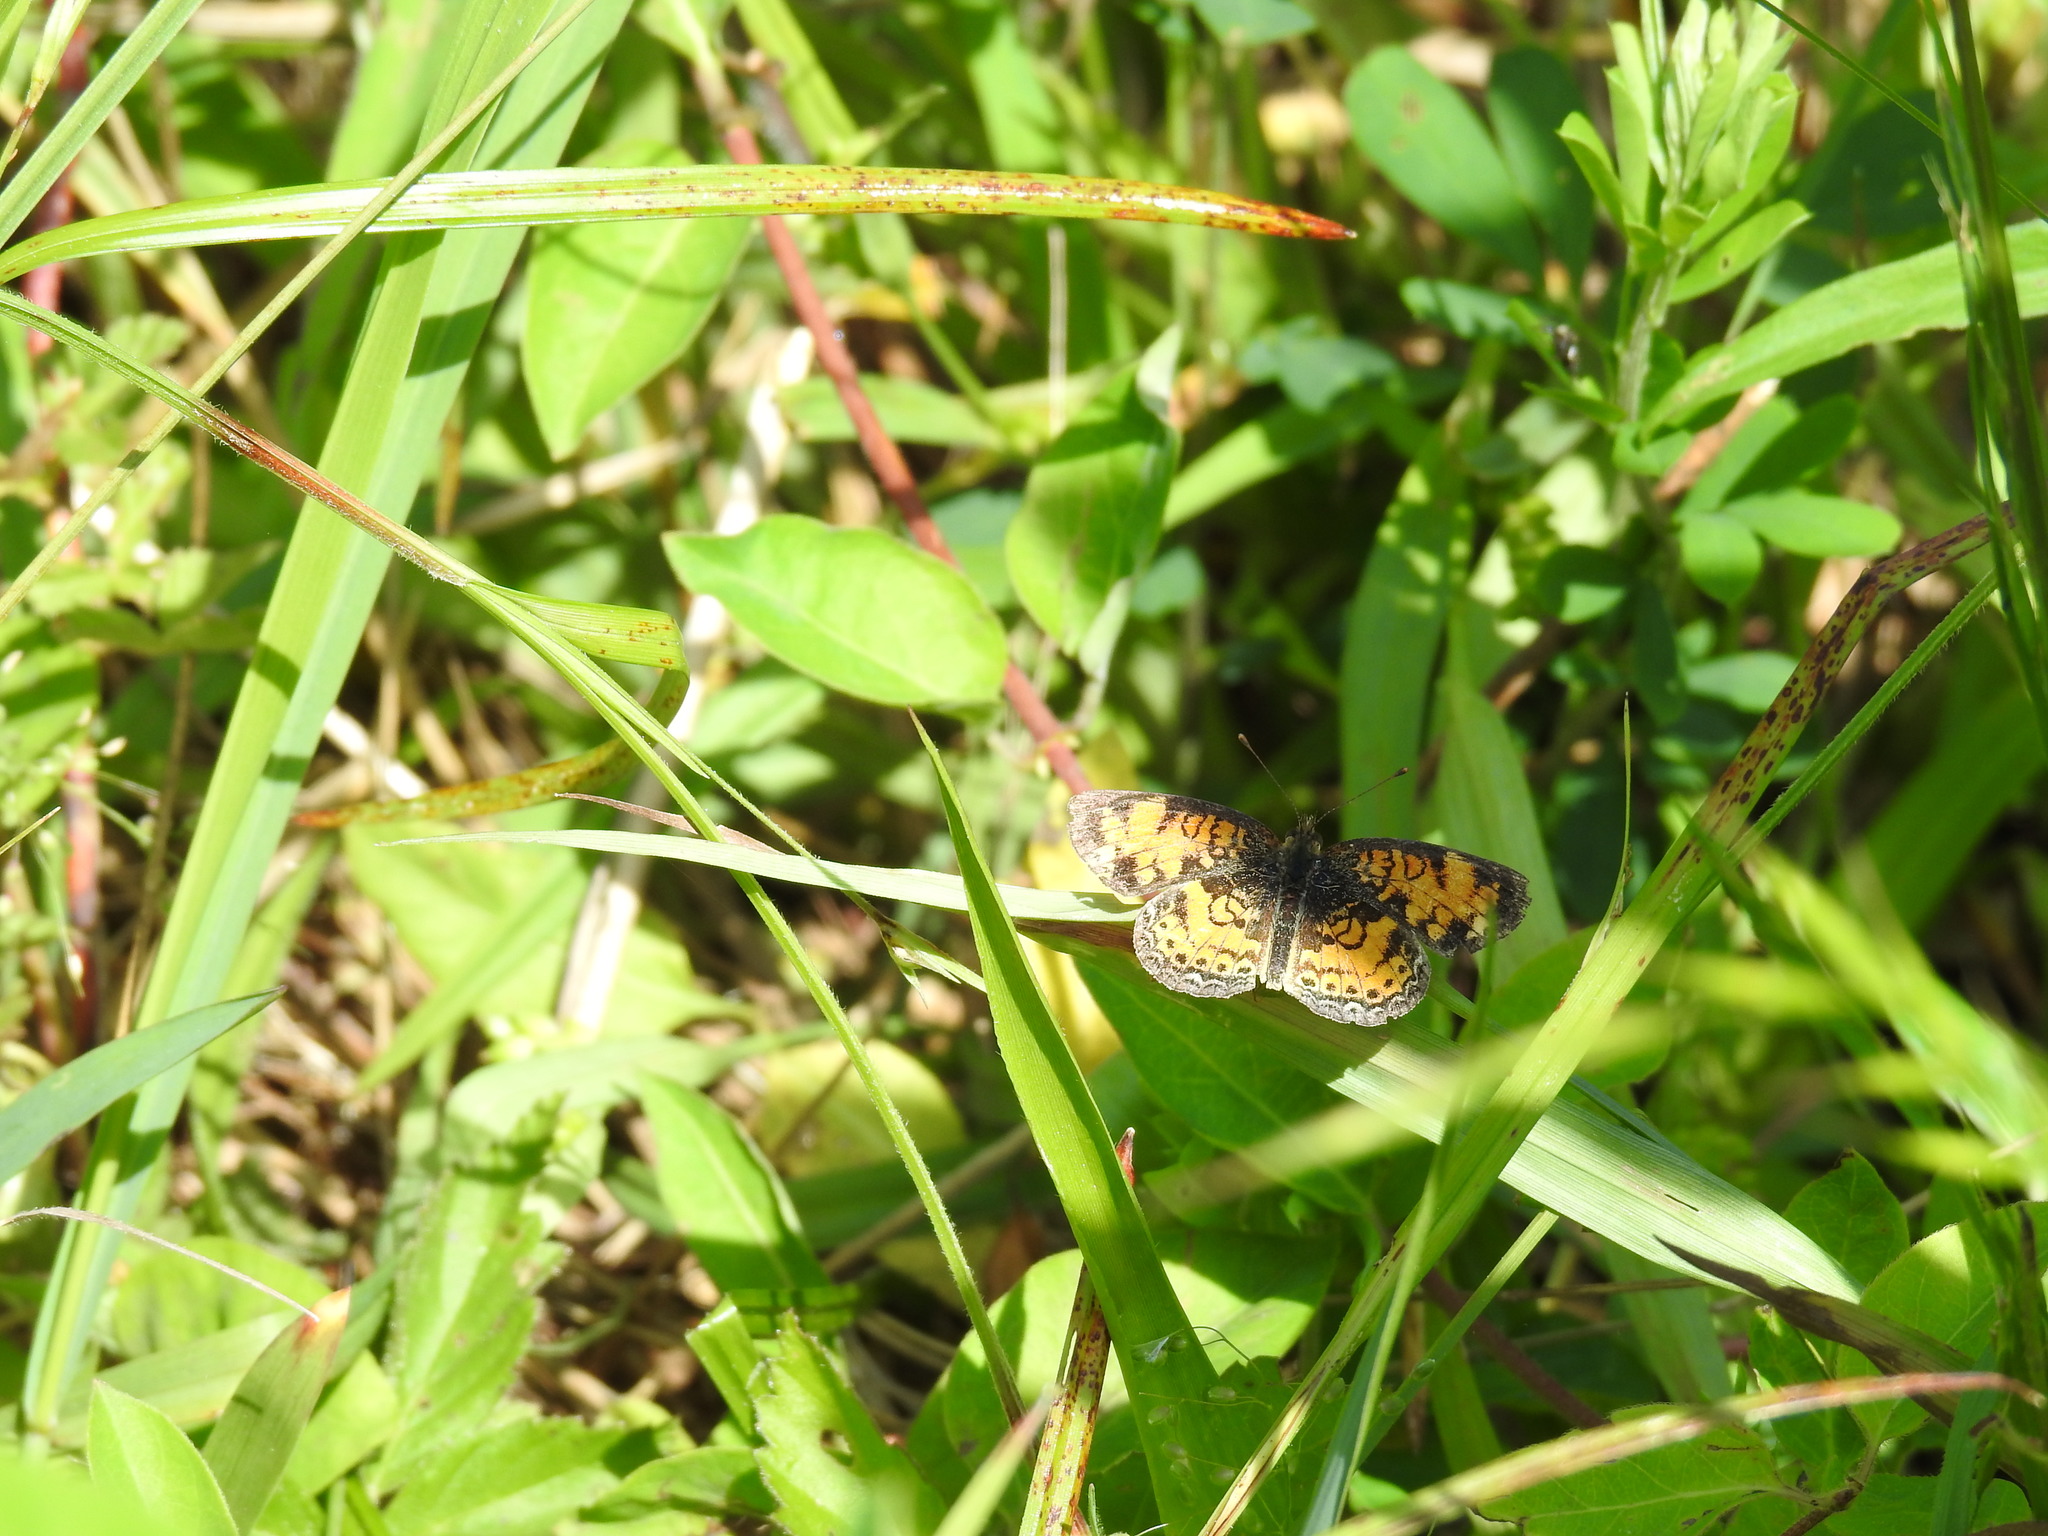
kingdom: Animalia
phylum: Arthropoda
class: Insecta
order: Lepidoptera
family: Nymphalidae
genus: Phyciodes
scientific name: Phyciodes tharos
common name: Pearl crescent
